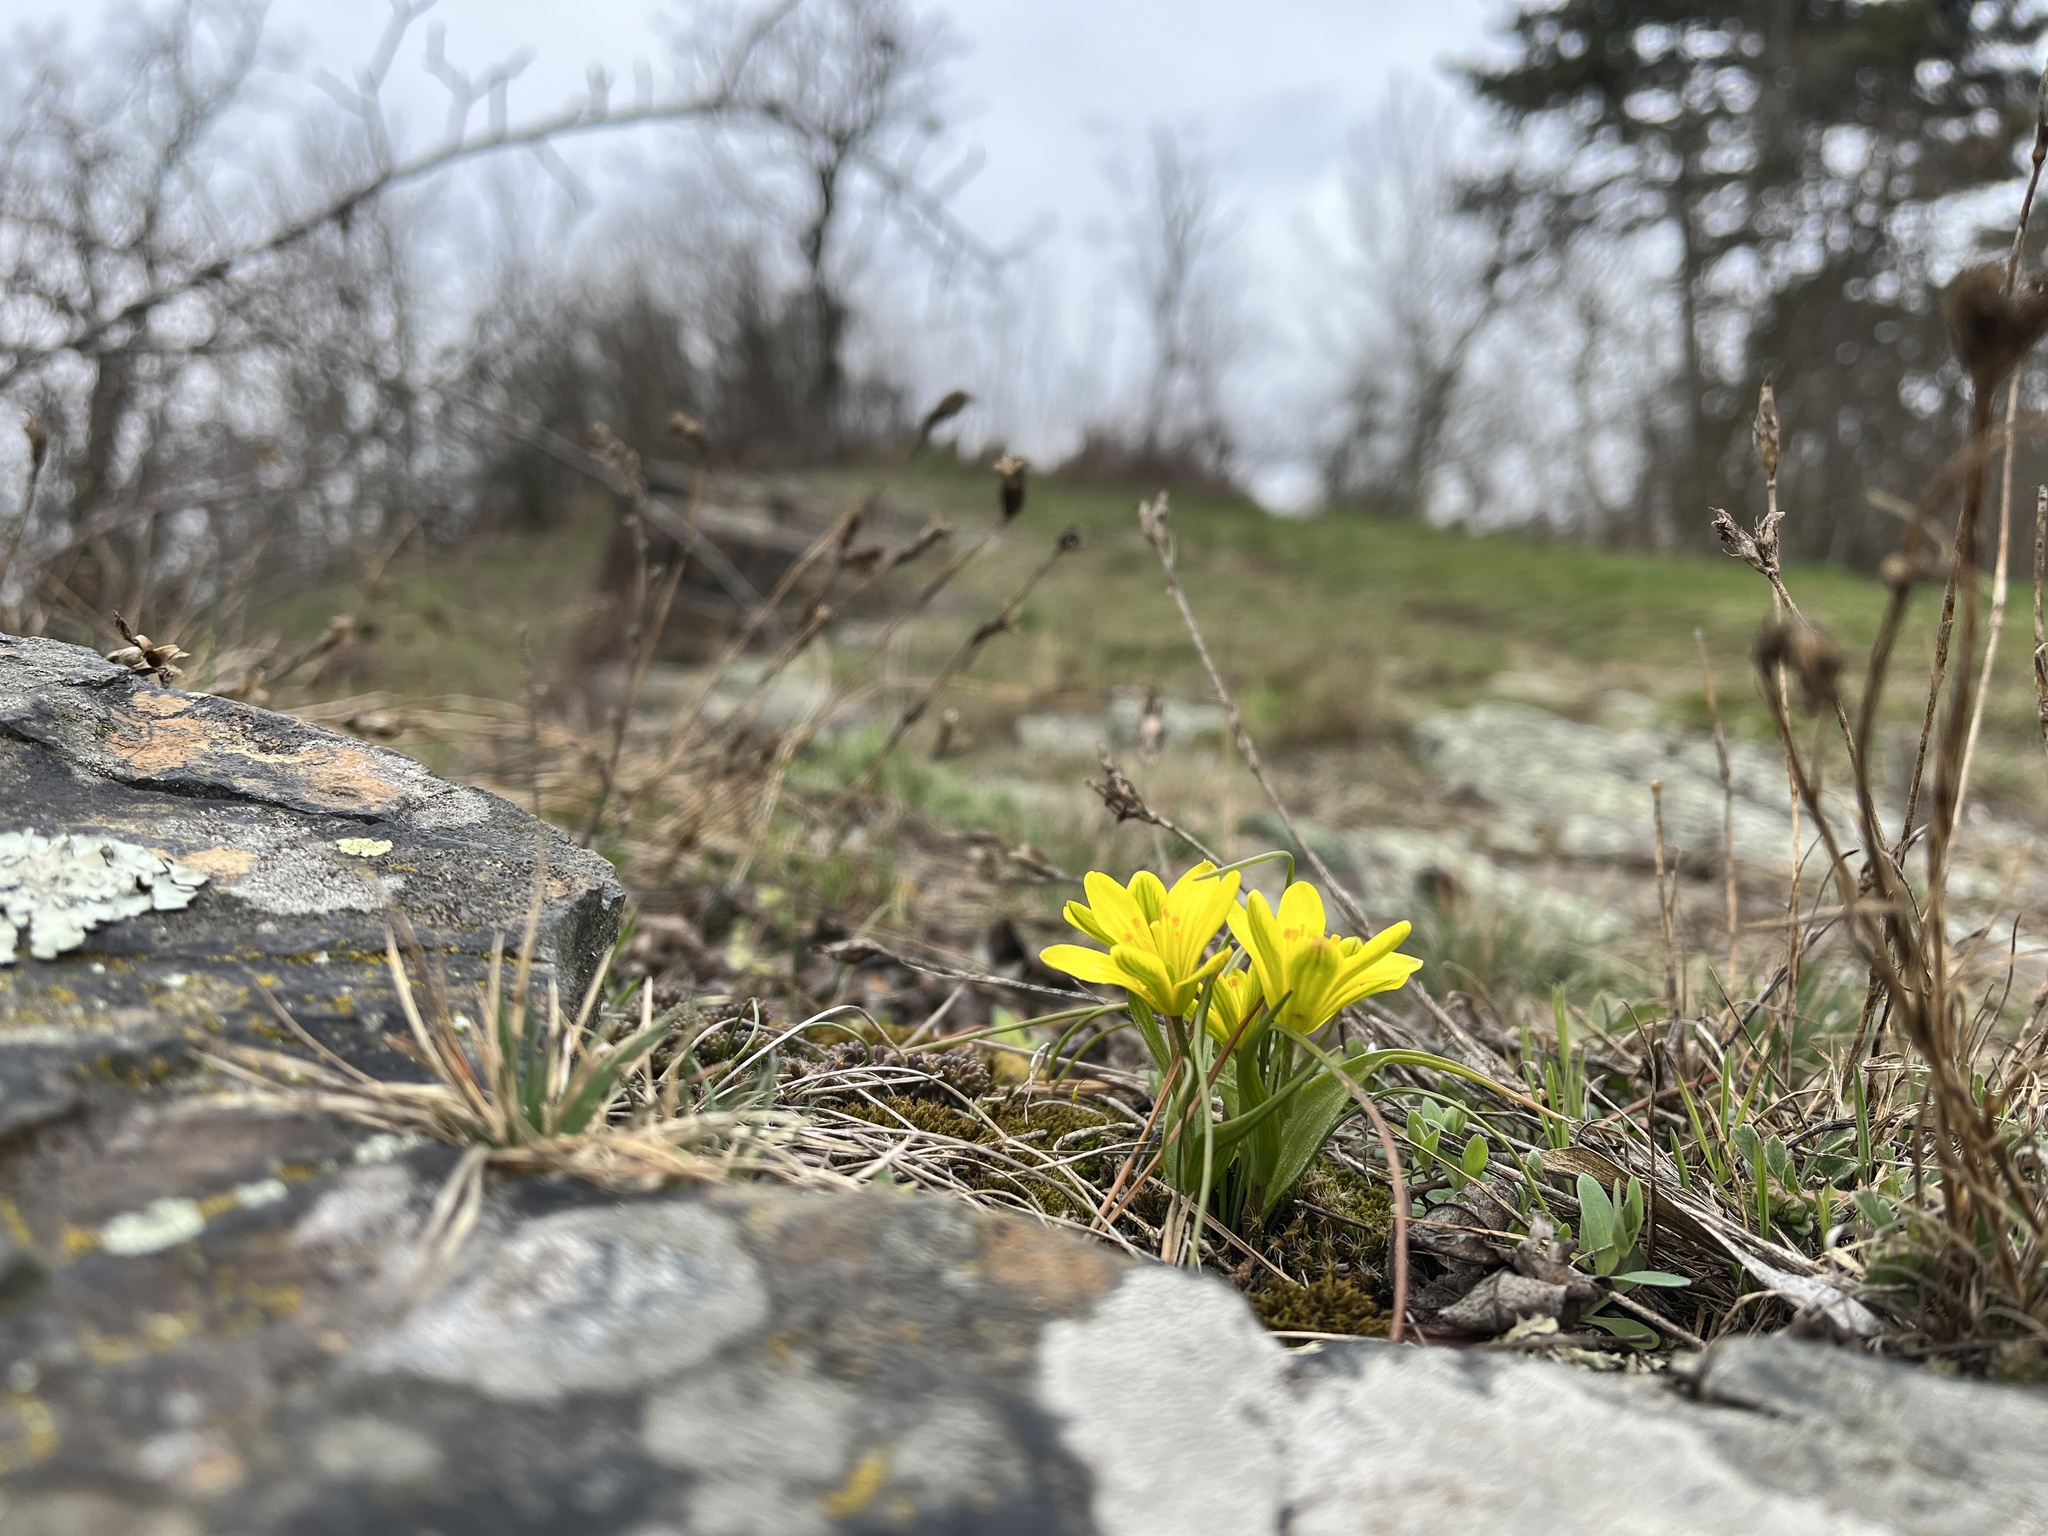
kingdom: Plantae
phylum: Tracheophyta
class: Liliopsida
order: Liliales
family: Liliaceae
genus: Gagea
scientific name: Gagea bohemica
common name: Early star-of-bethlehem
